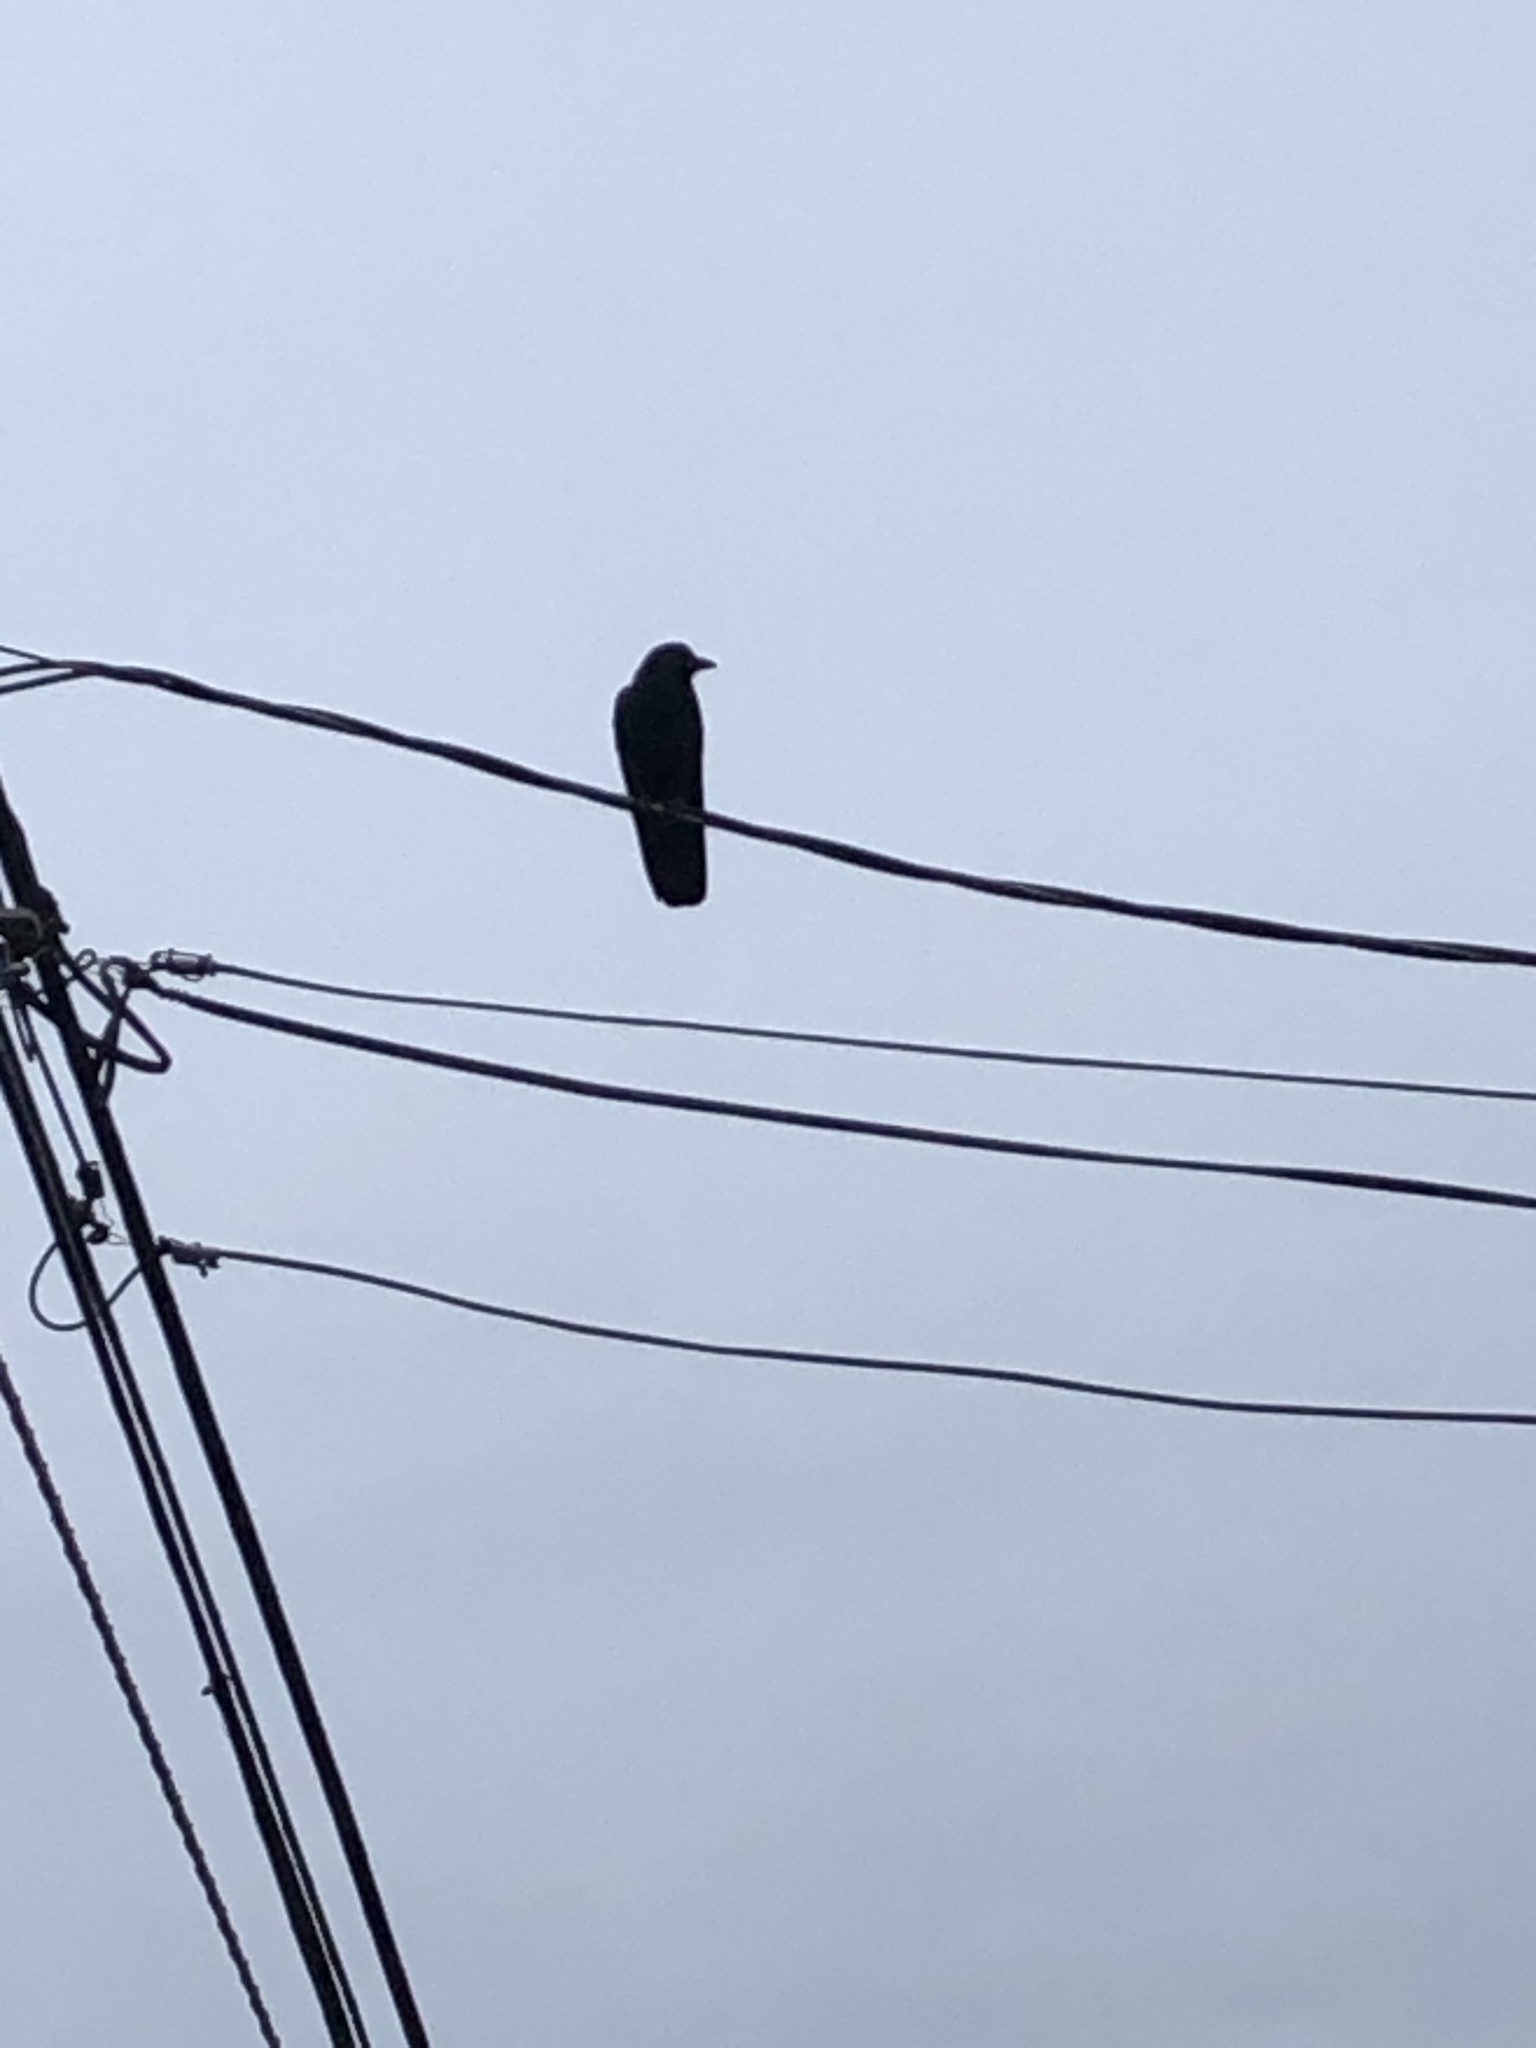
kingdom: Animalia
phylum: Chordata
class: Aves
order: Passeriformes
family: Corvidae
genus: Corvus
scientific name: Corvus brachyrhynchos
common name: American crow
